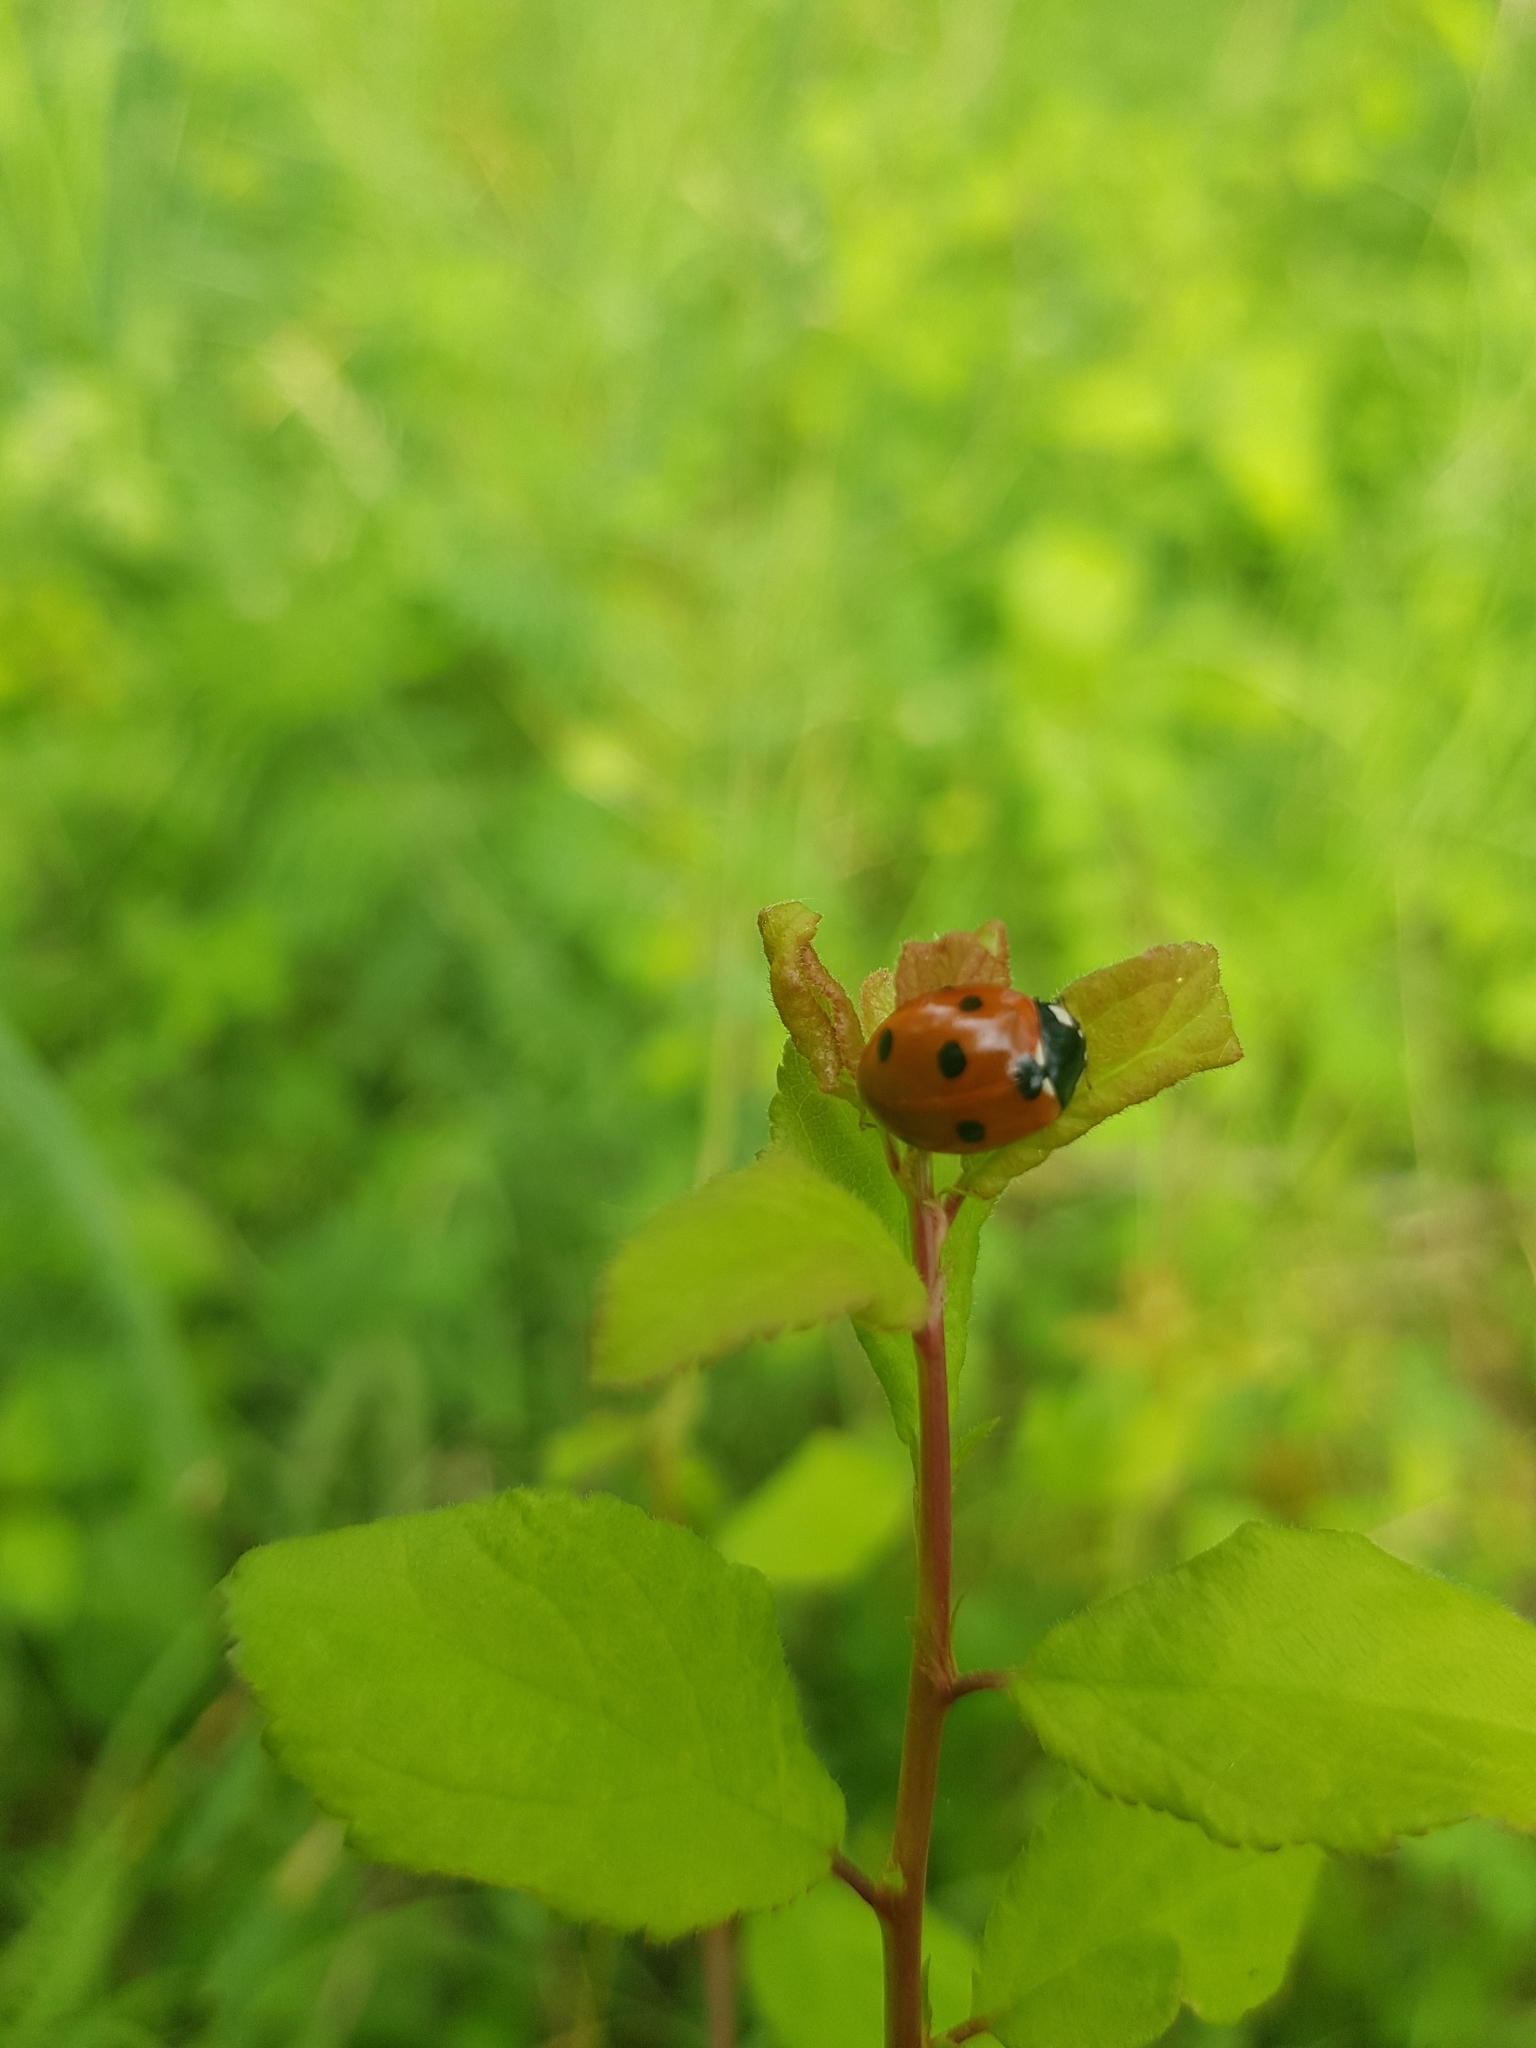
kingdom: Animalia
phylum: Arthropoda
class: Insecta
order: Coleoptera
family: Coccinellidae
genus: Coccinella
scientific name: Coccinella septempunctata
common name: Sevenspotted lady beetle
